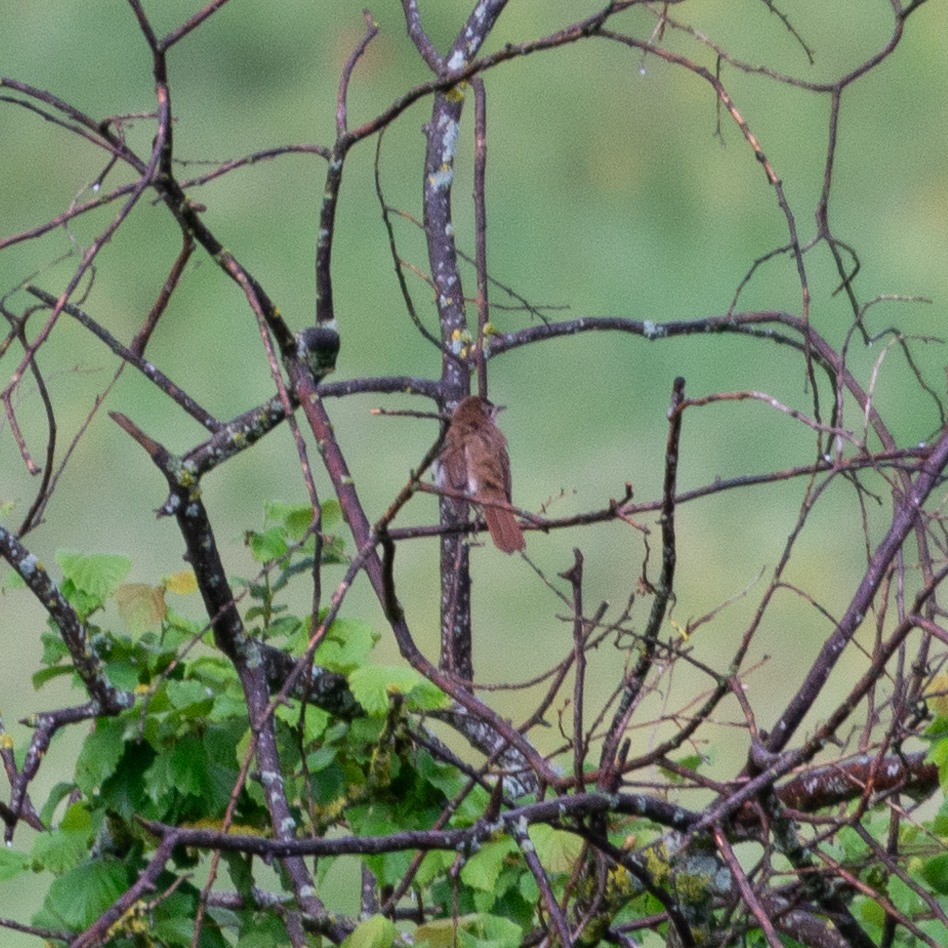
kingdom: Animalia
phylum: Chordata
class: Aves
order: Passeriformes
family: Muscicapidae
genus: Luscinia
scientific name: Luscinia megarhynchos
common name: Common nightingale
